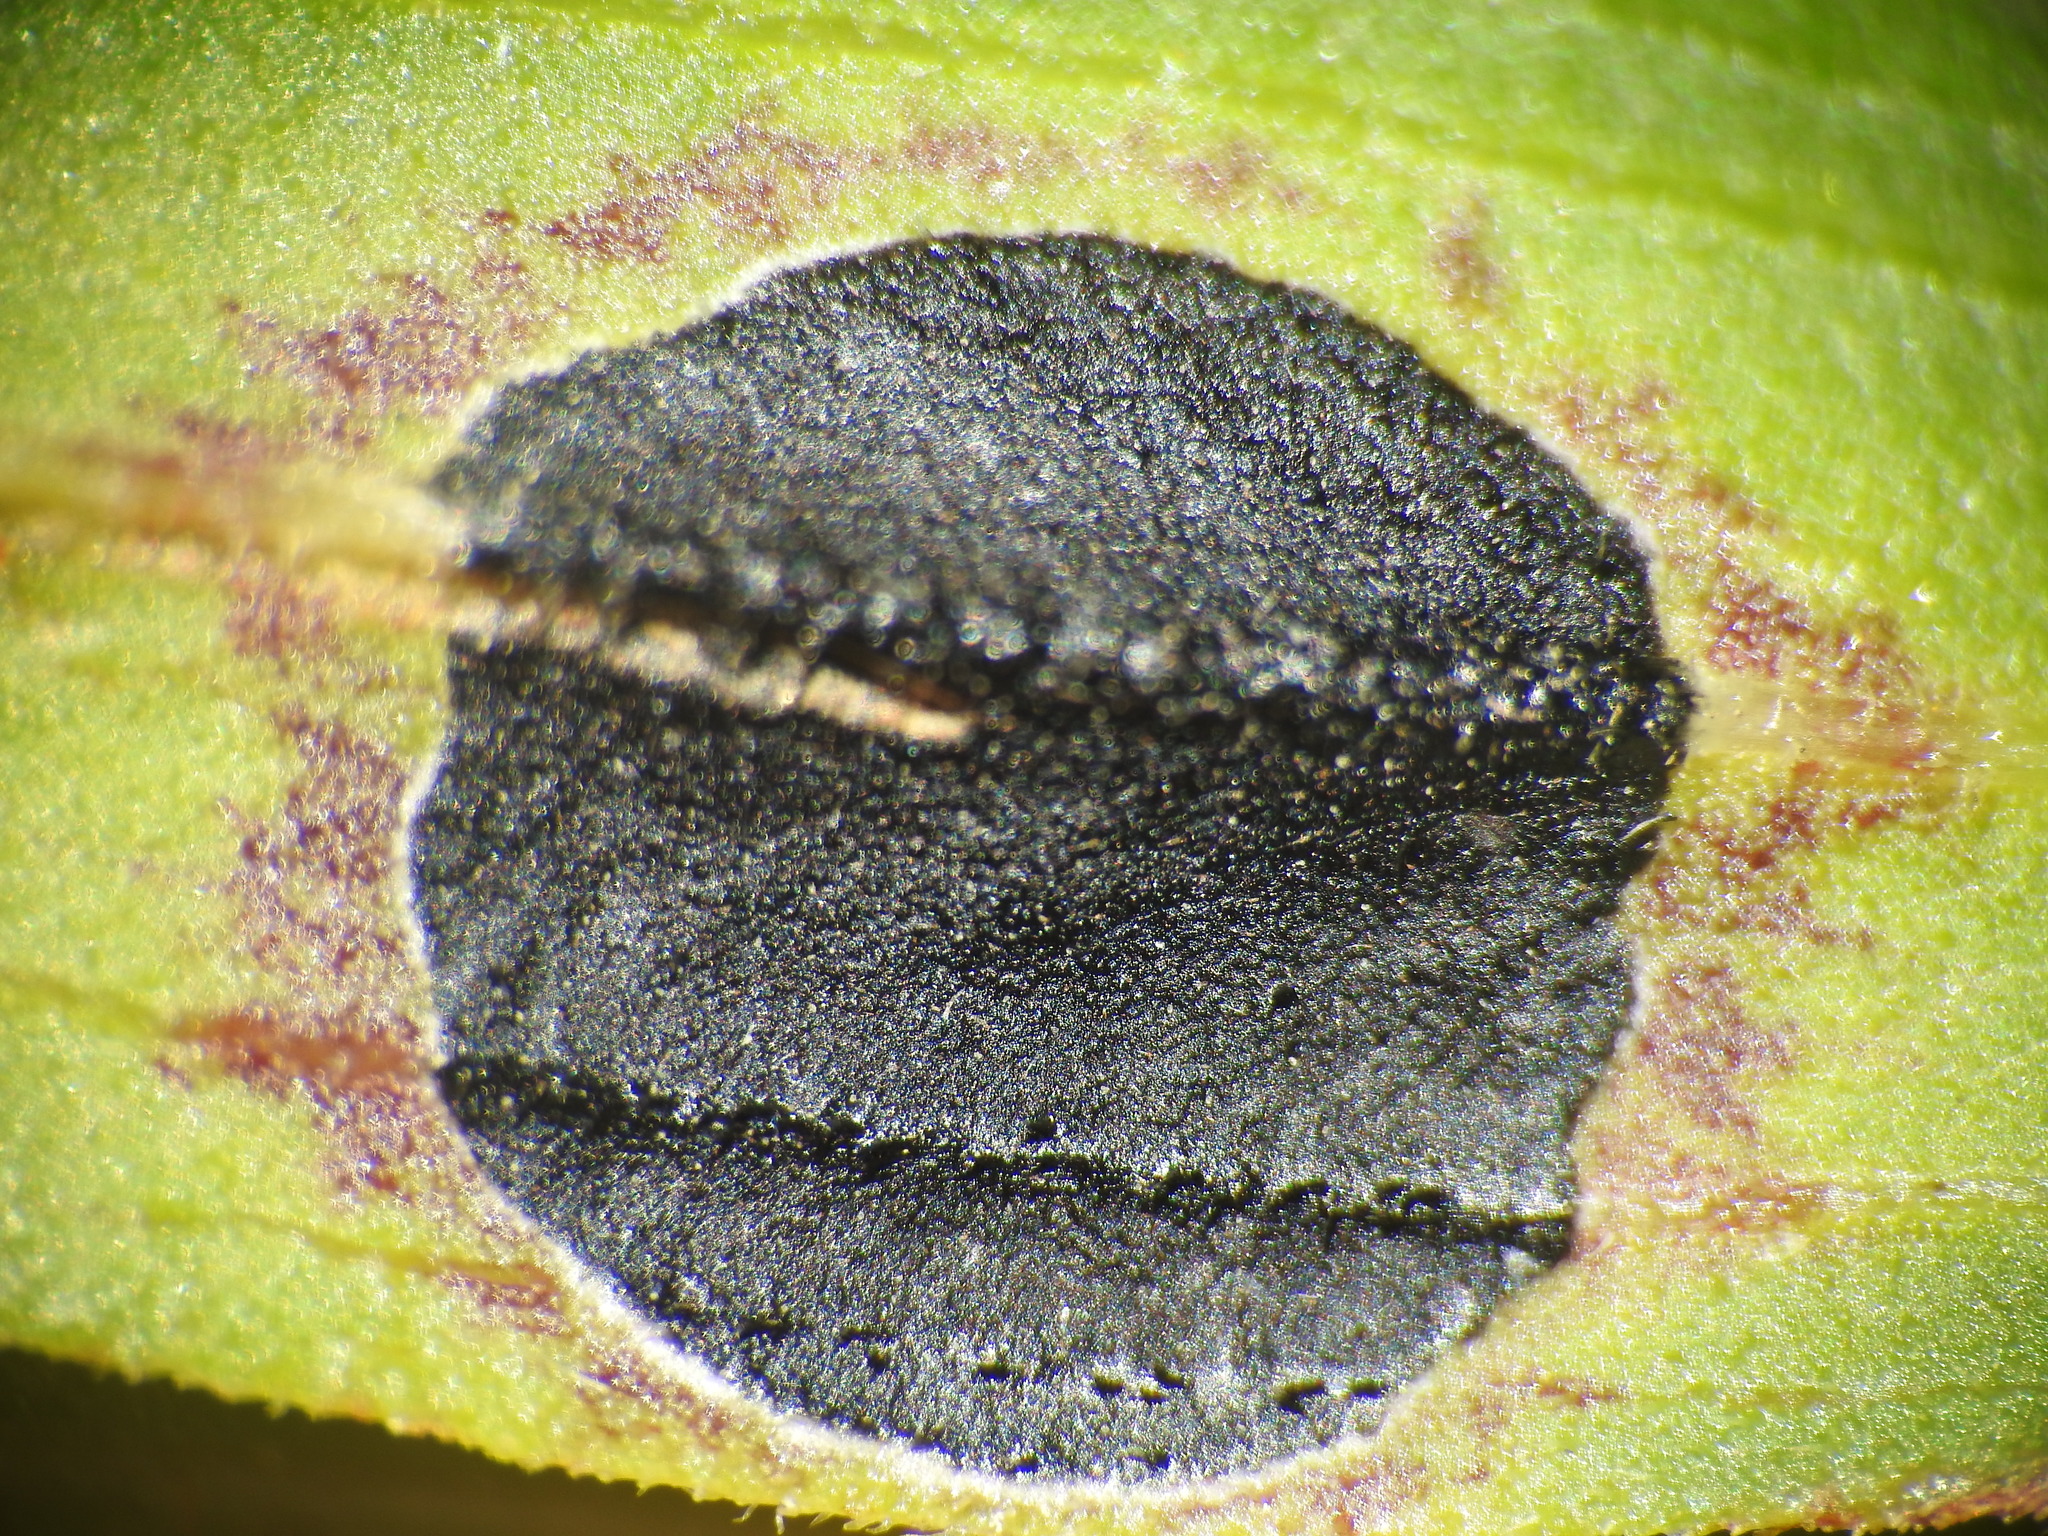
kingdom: Animalia
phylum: Arthropoda
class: Insecta
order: Diptera
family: Cecidomyiidae
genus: Asteromyia
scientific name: Asteromyia euthamiae
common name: Euthamia leaf gall midge
